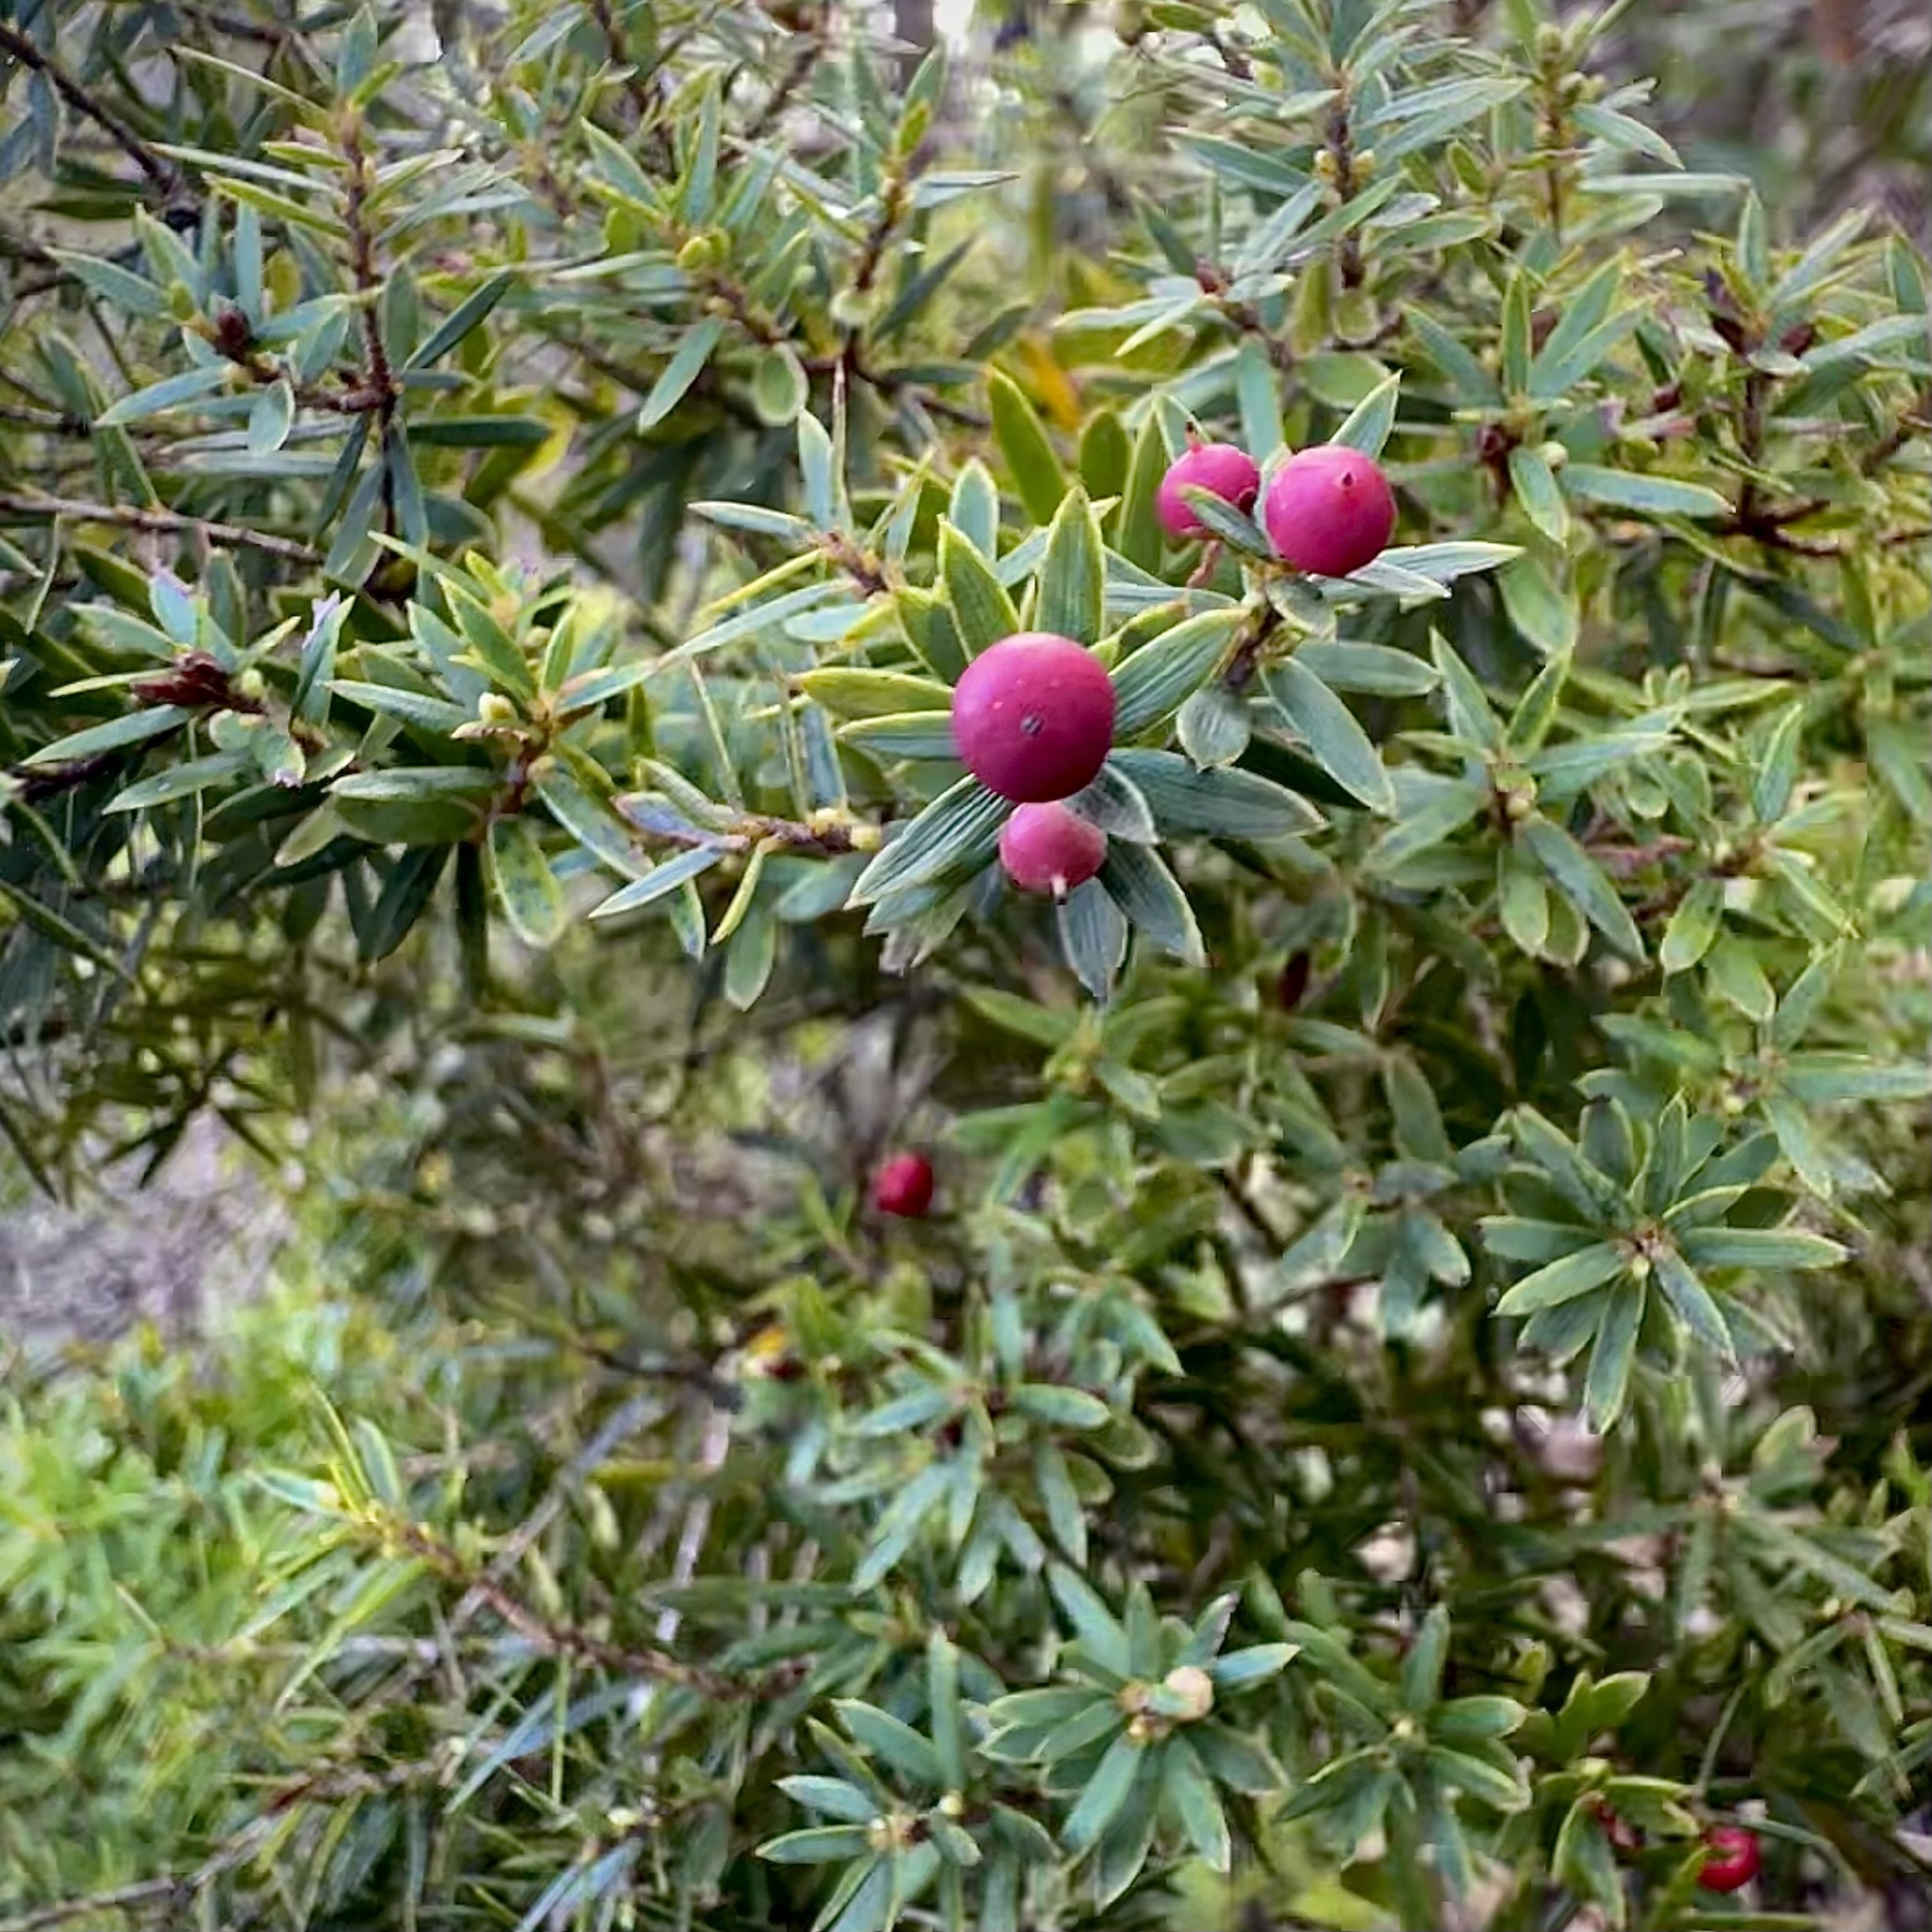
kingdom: Plantae
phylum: Tracheophyta
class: Magnoliopsida
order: Ericales
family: Ericaceae
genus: Leptecophylla
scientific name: Leptecophylla tameiameiae
